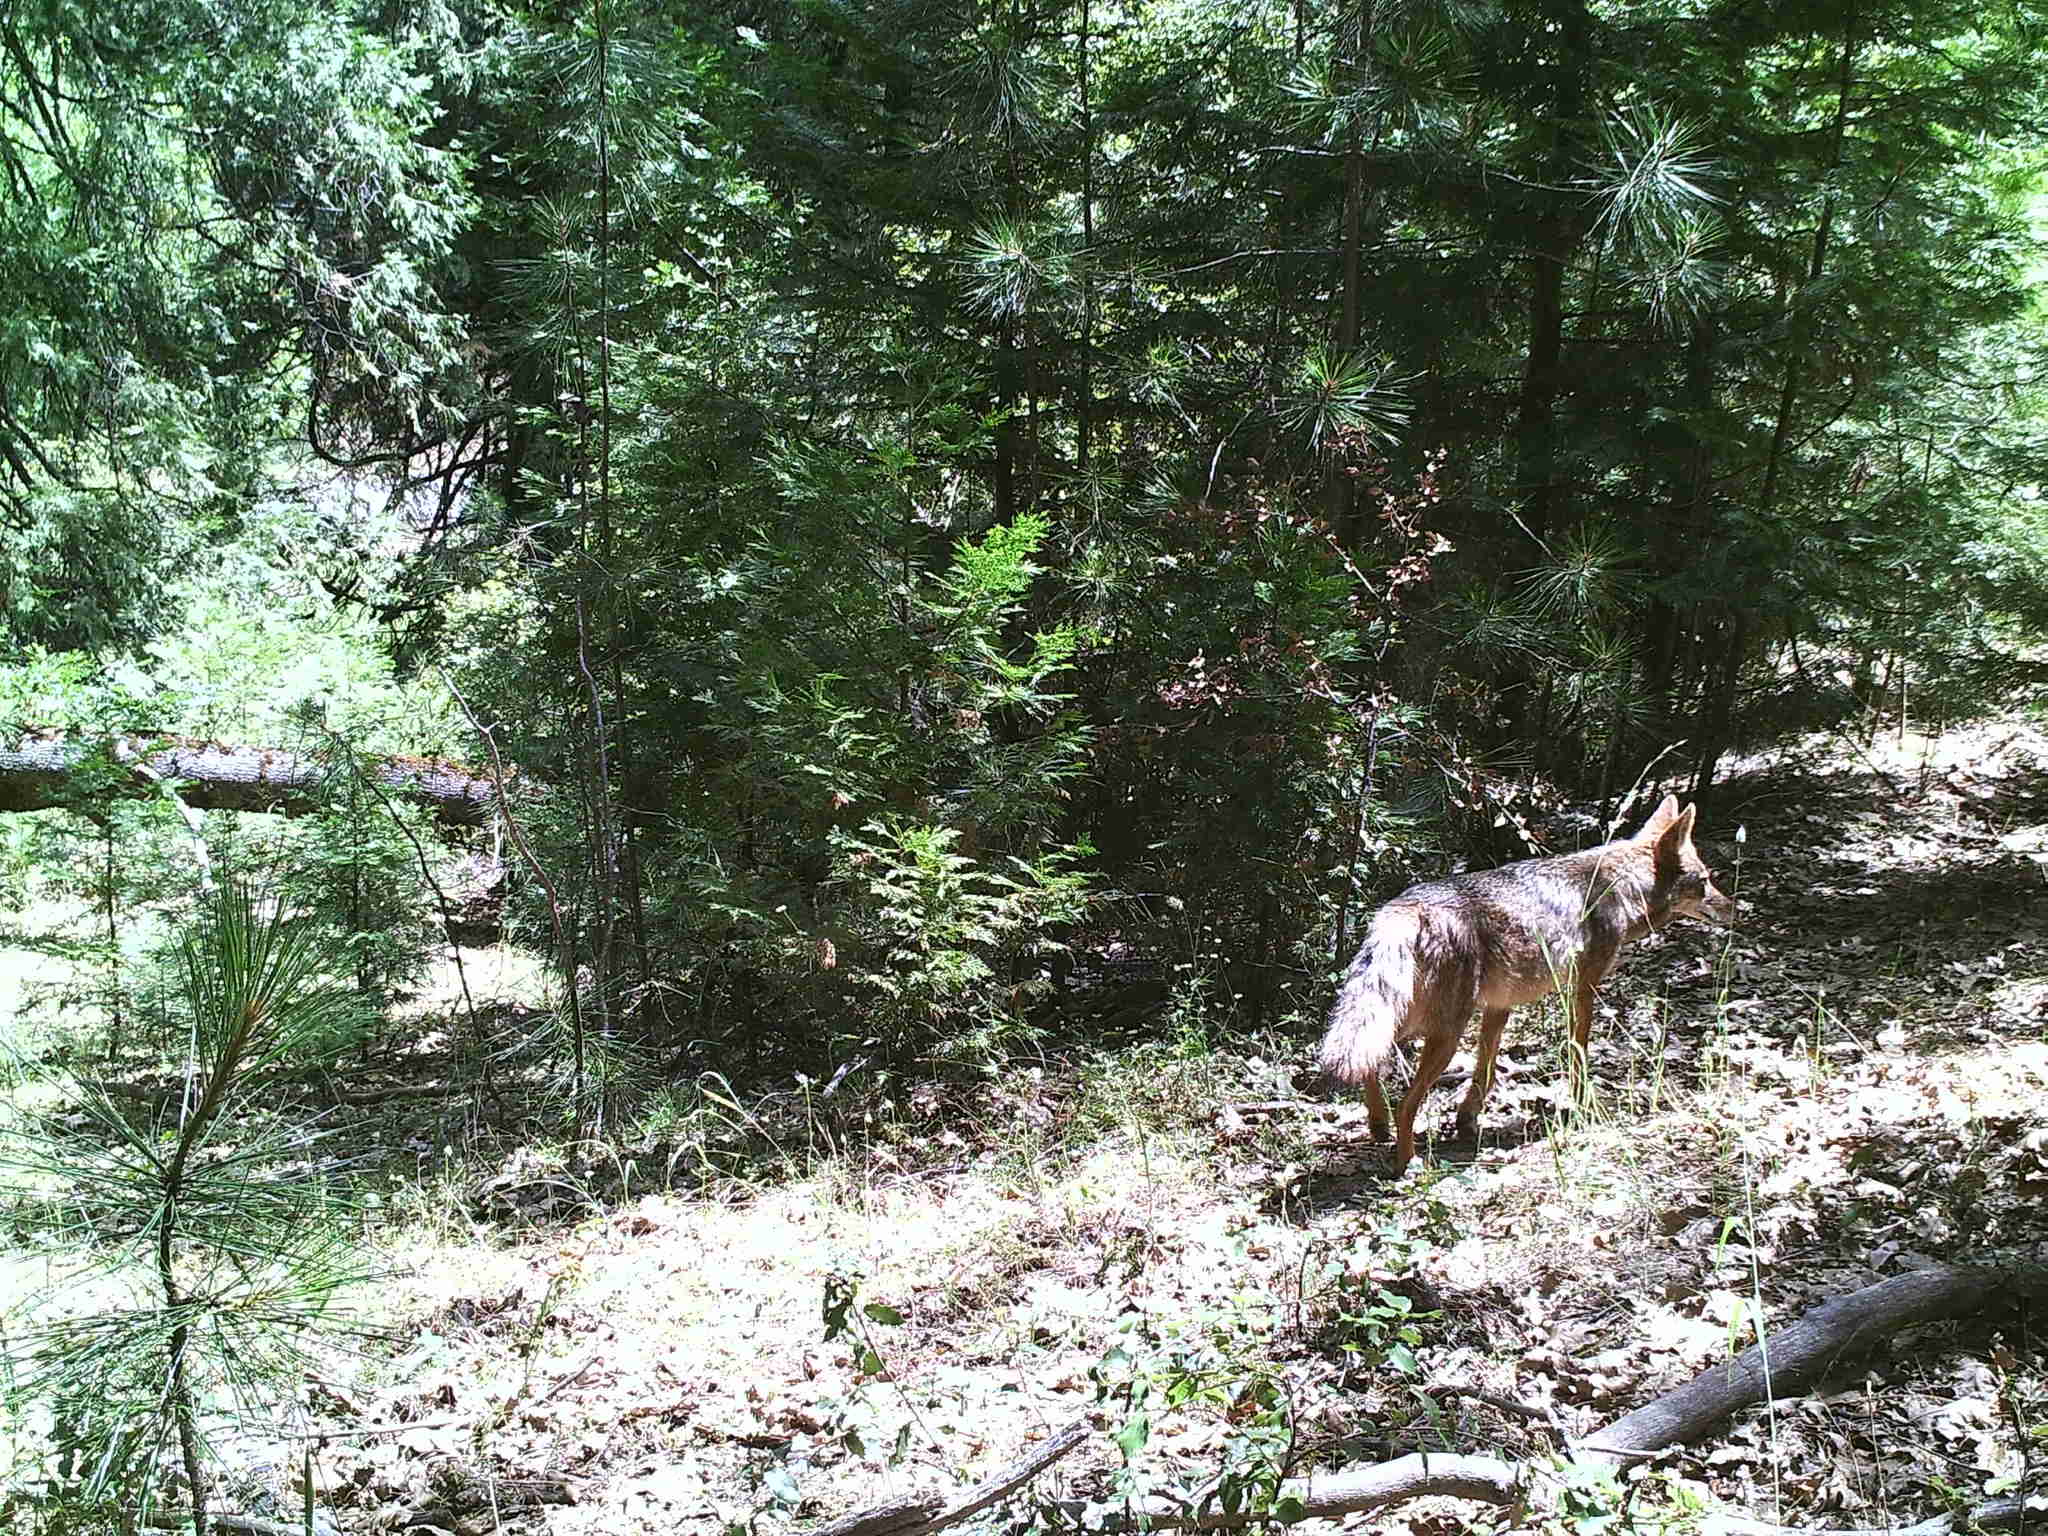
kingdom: Animalia
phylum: Chordata
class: Mammalia
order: Carnivora
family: Canidae
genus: Canis
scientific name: Canis latrans
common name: Coyote
